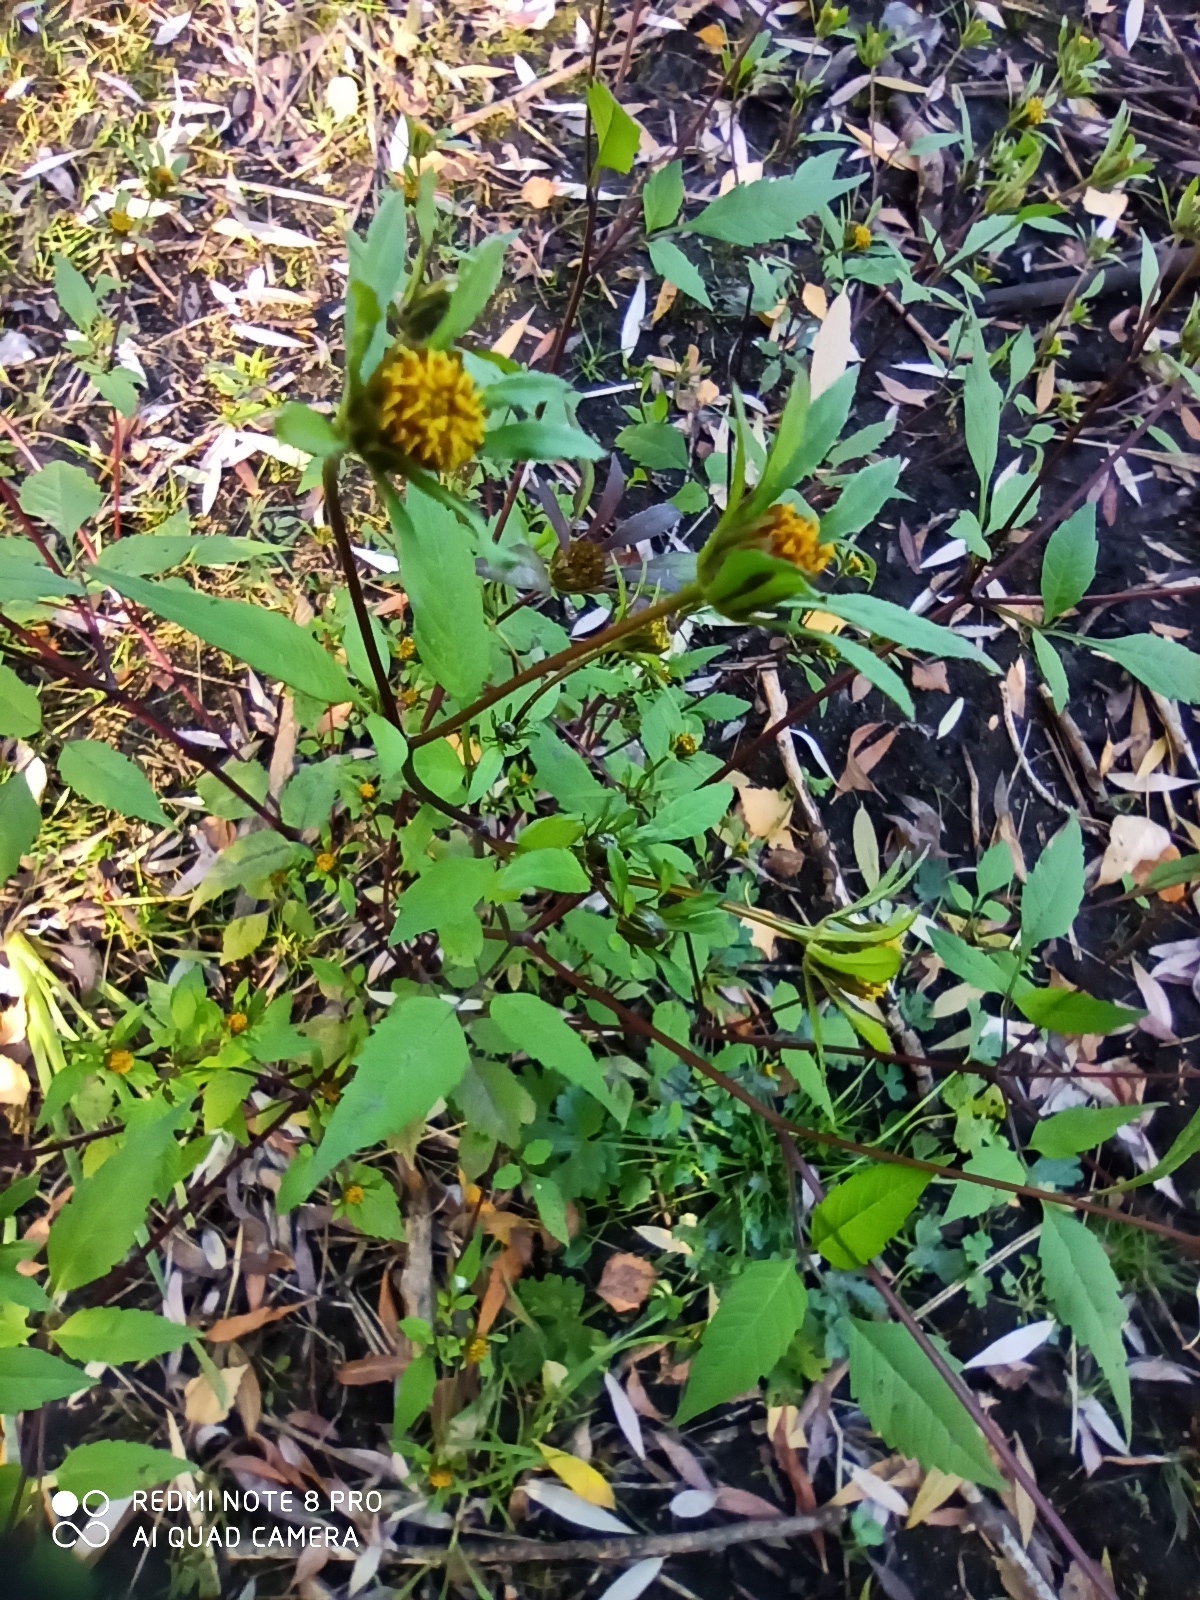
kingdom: Plantae
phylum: Tracheophyta
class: Magnoliopsida
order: Asterales
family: Asteraceae
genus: Bidens
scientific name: Bidens frondosa
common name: Beggarticks
